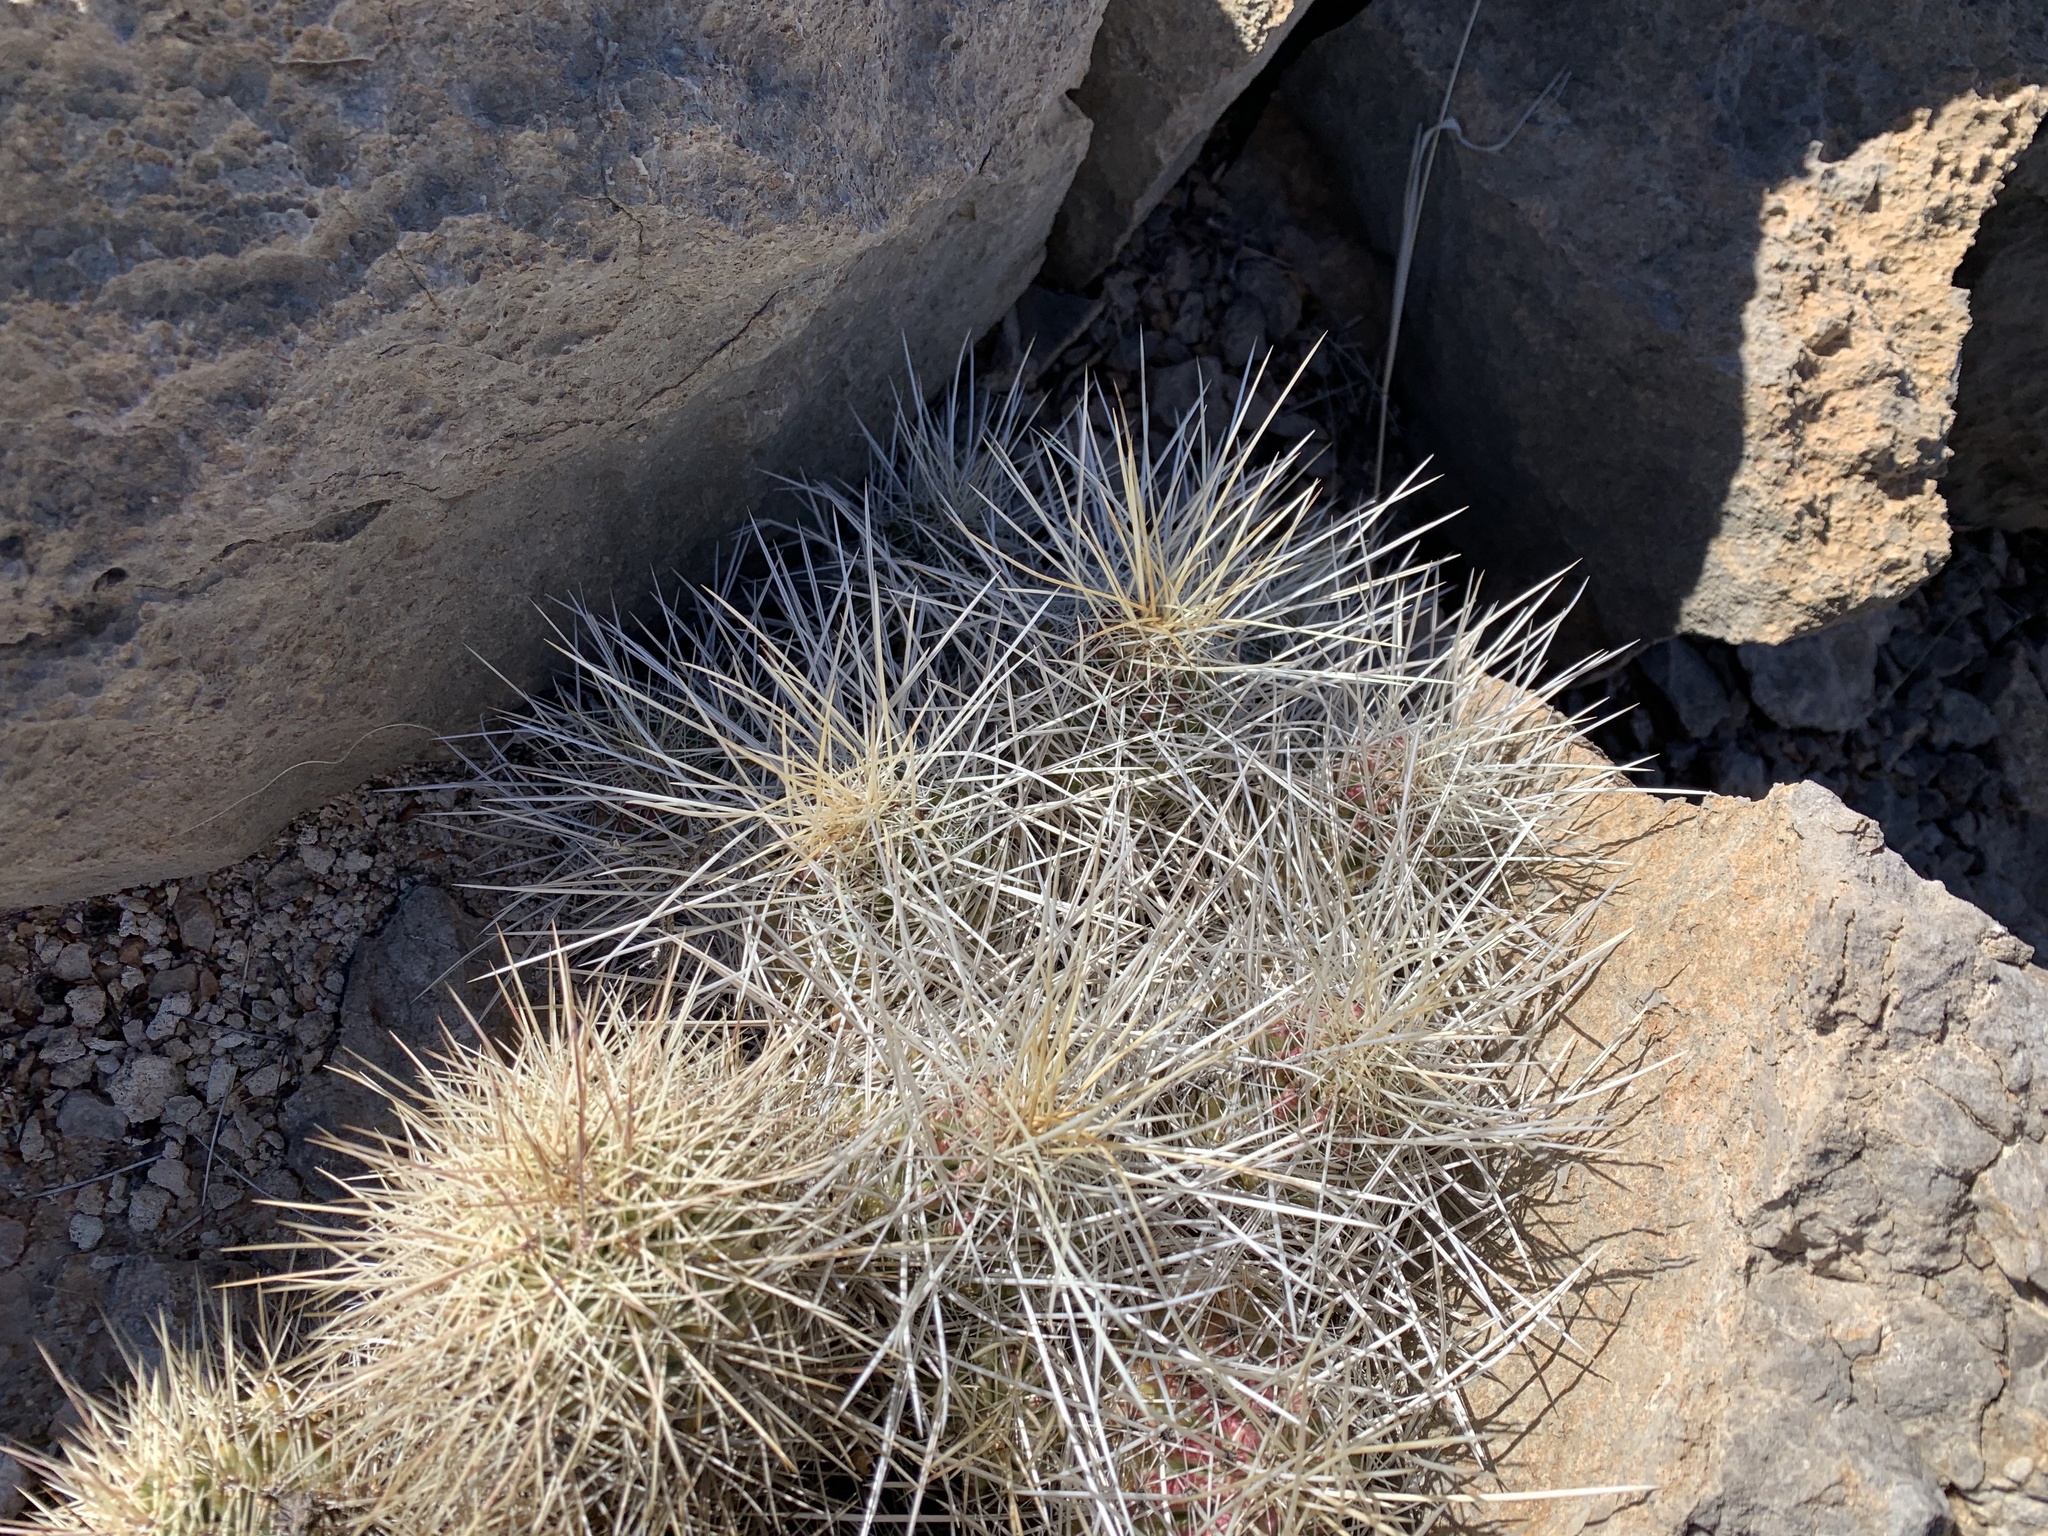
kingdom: Plantae
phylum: Tracheophyta
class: Magnoliopsida
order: Caryophyllales
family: Cactaceae
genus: Echinocereus
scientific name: Echinocereus stramineus
